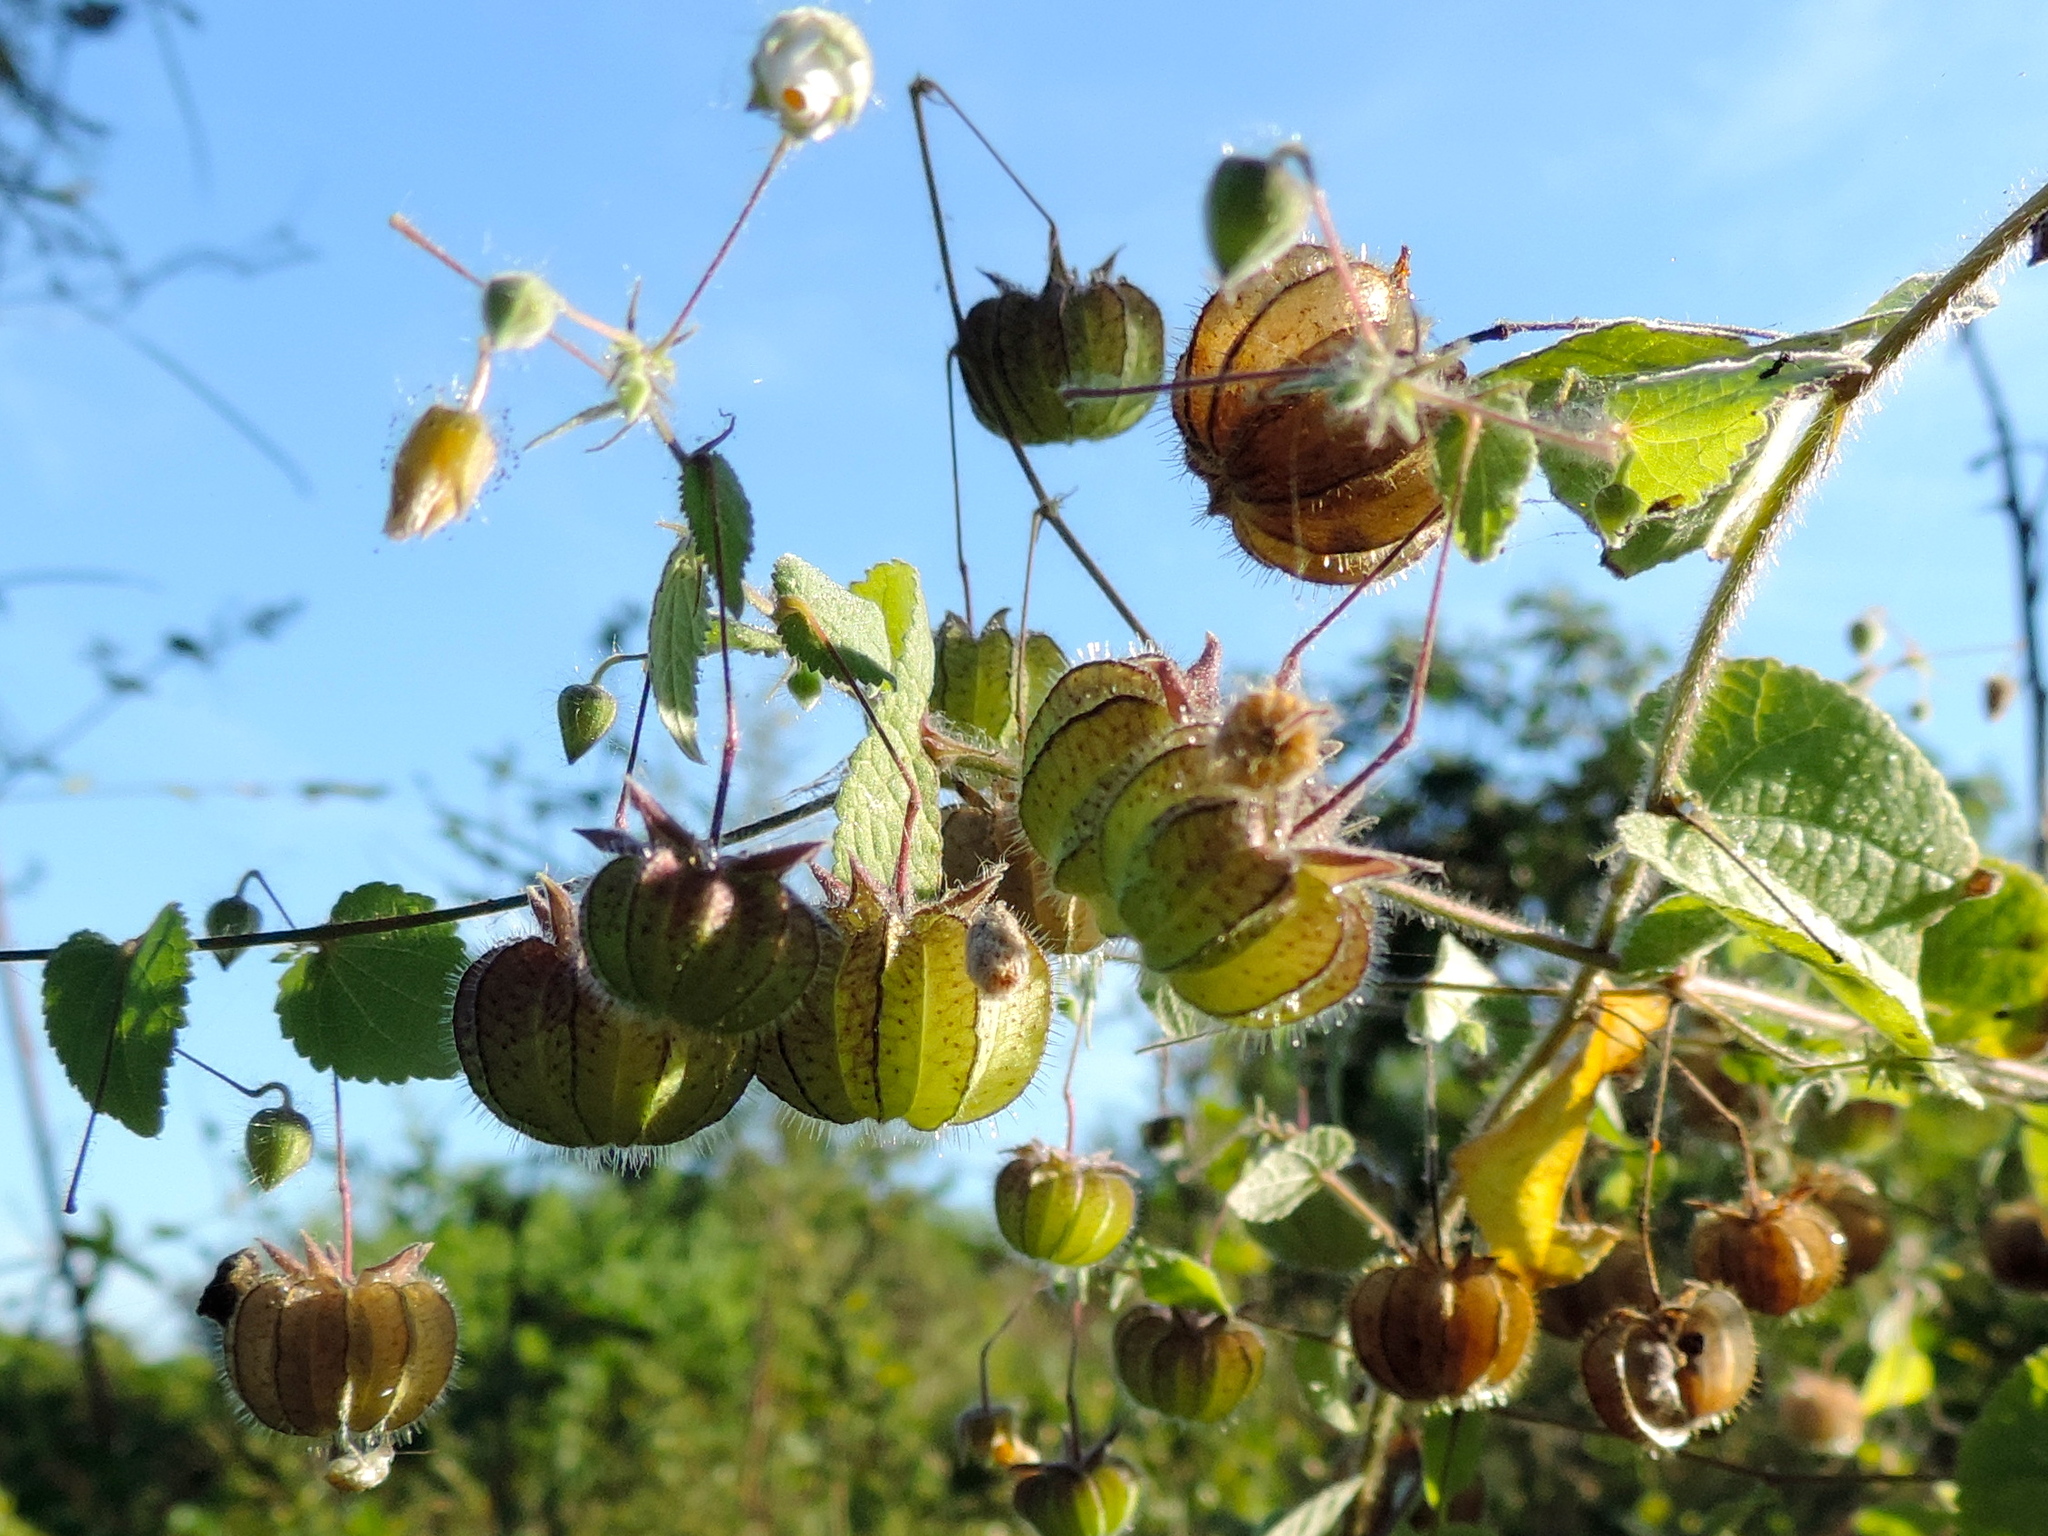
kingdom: Plantae
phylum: Tracheophyta
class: Magnoliopsida
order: Malvales
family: Malvaceae
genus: Herissantia
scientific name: Herissantia crispa
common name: Bladdermallow
